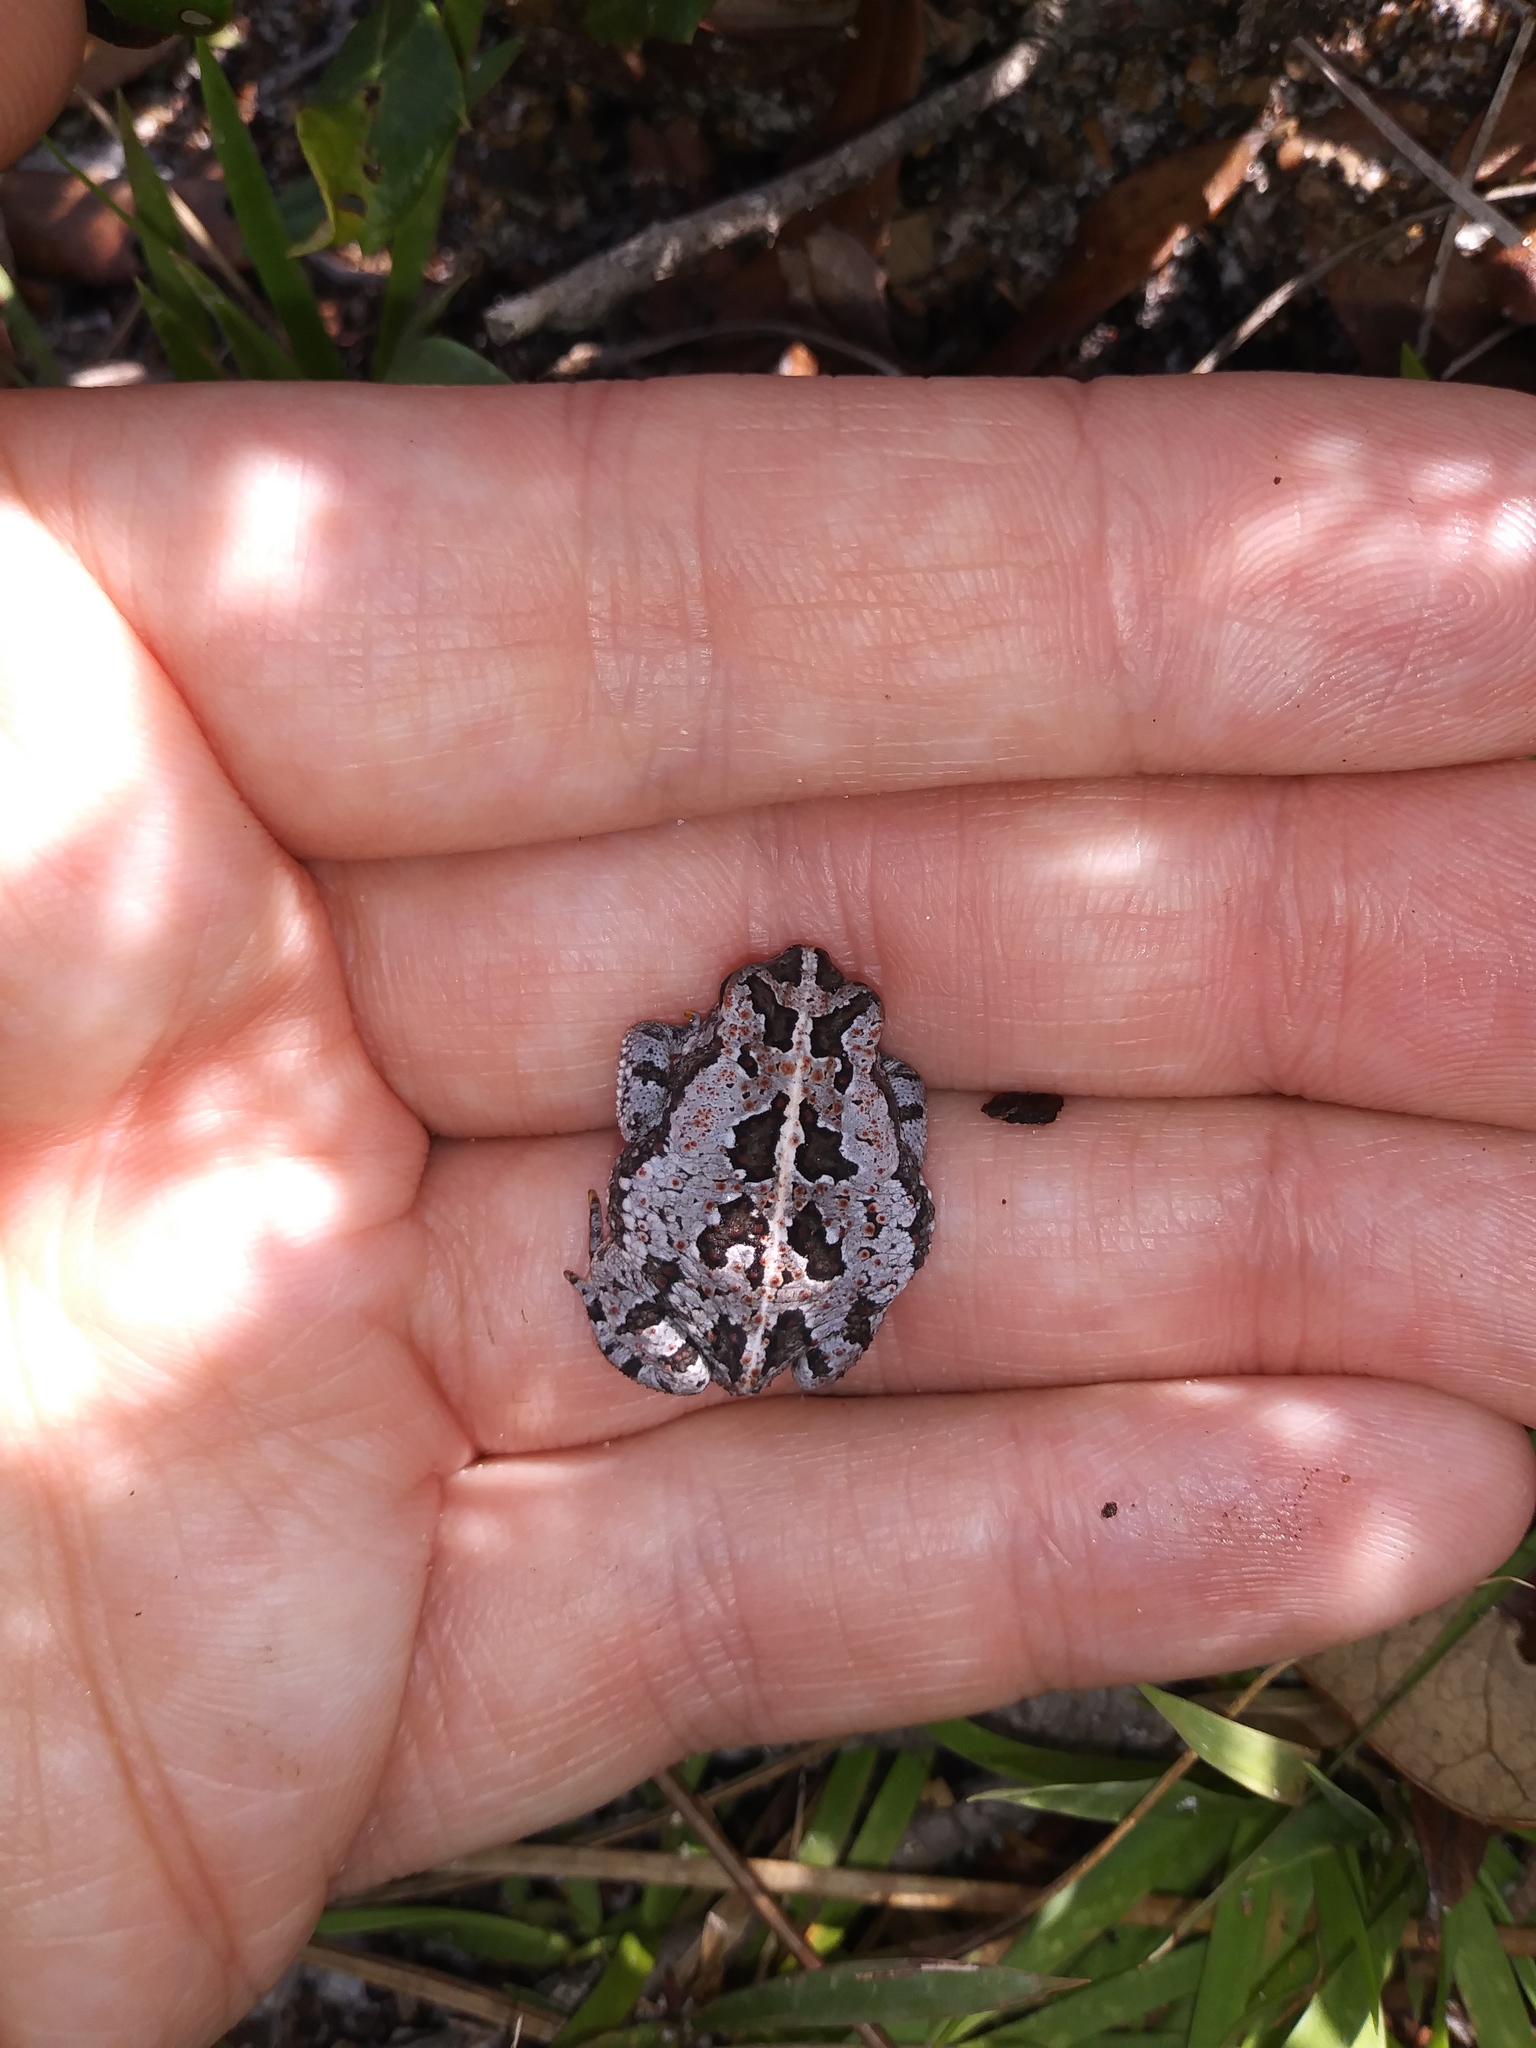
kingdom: Animalia
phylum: Chordata
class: Amphibia
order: Anura
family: Bufonidae
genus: Anaxyrus
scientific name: Anaxyrus quercicus
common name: Oak toad
